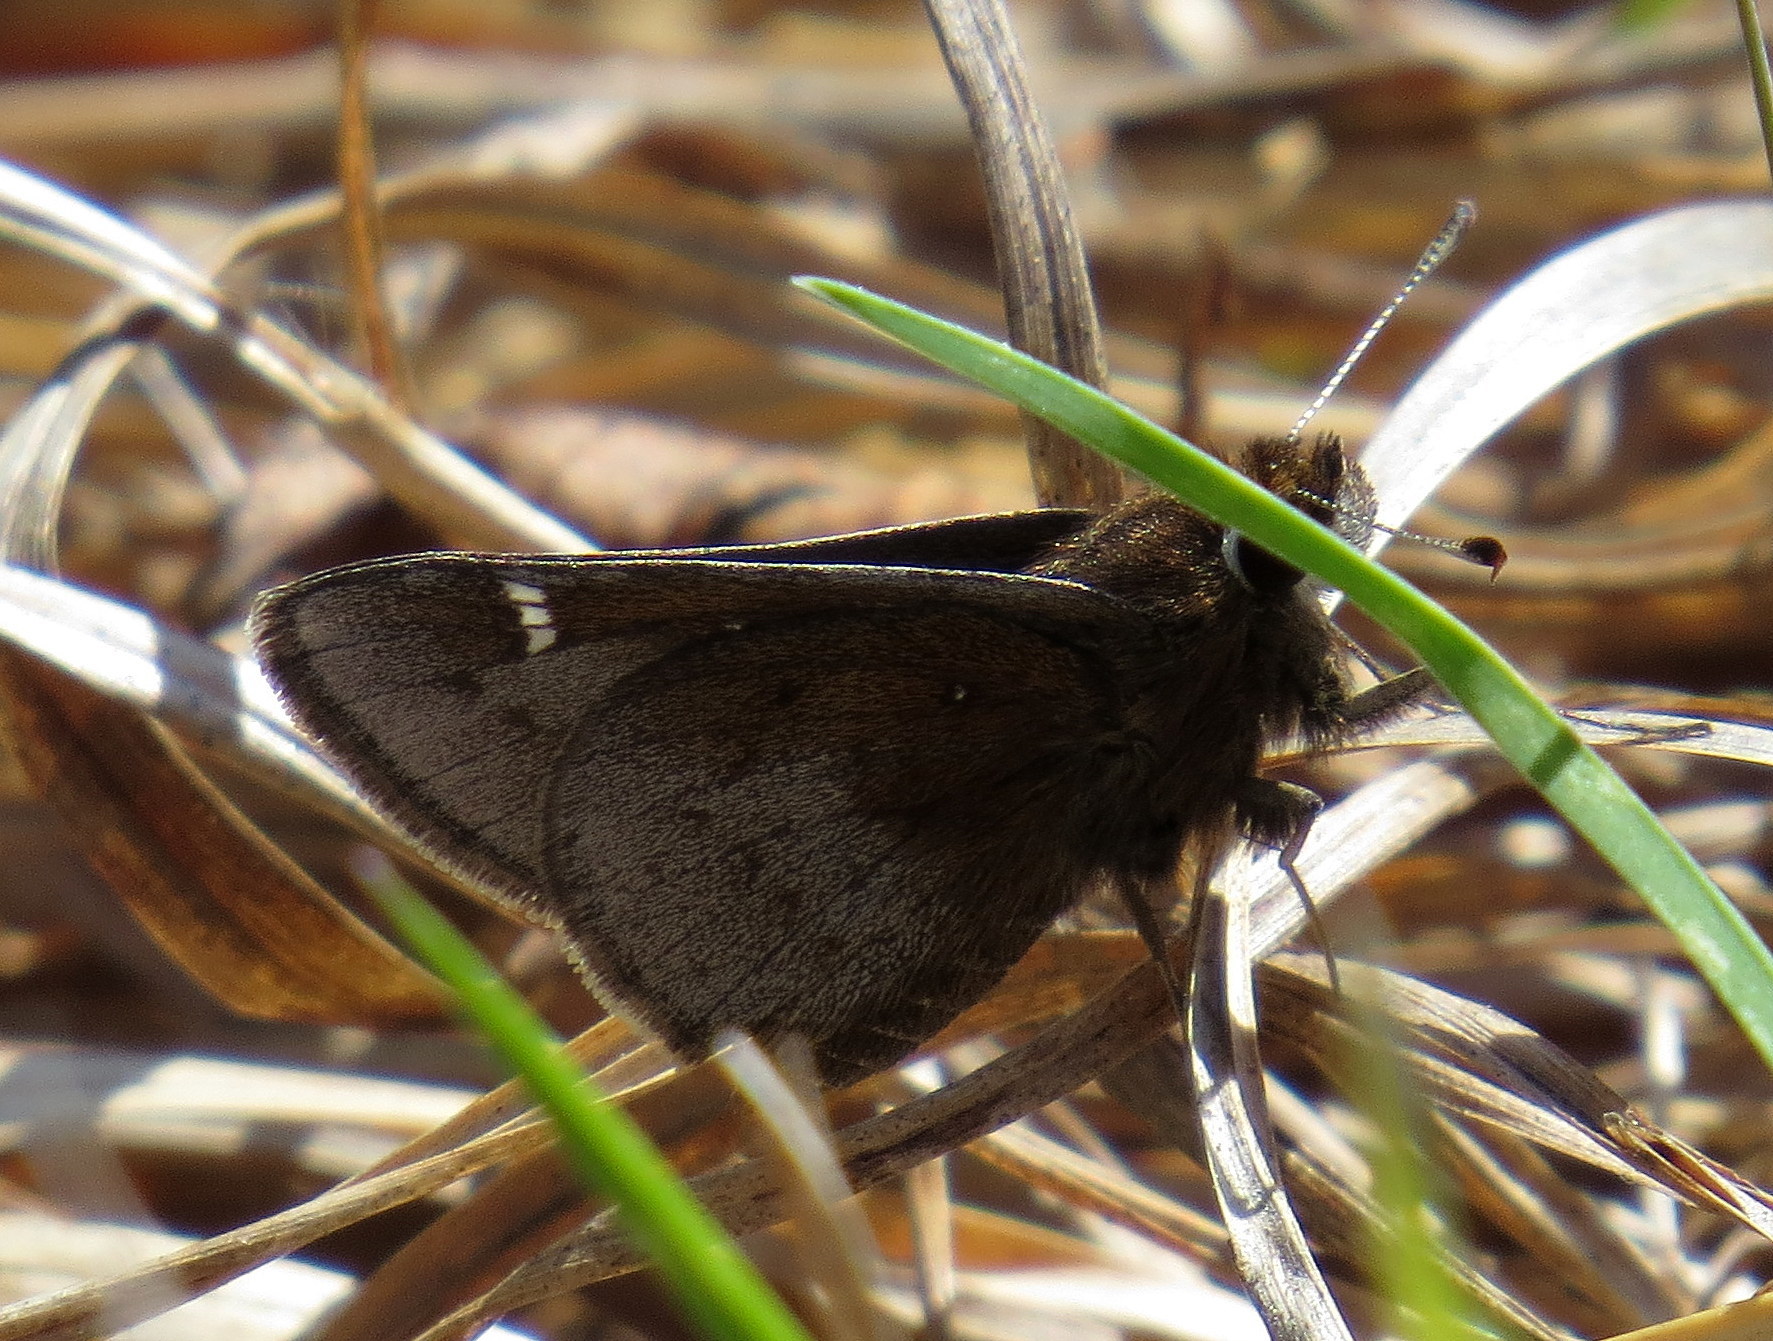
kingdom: Animalia
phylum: Arthropoda
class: Insecta
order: Lepidoptera
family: Hesperiidae
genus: Atrytonopsis
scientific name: Atrytonopsis hianna
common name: Dusted skipper
